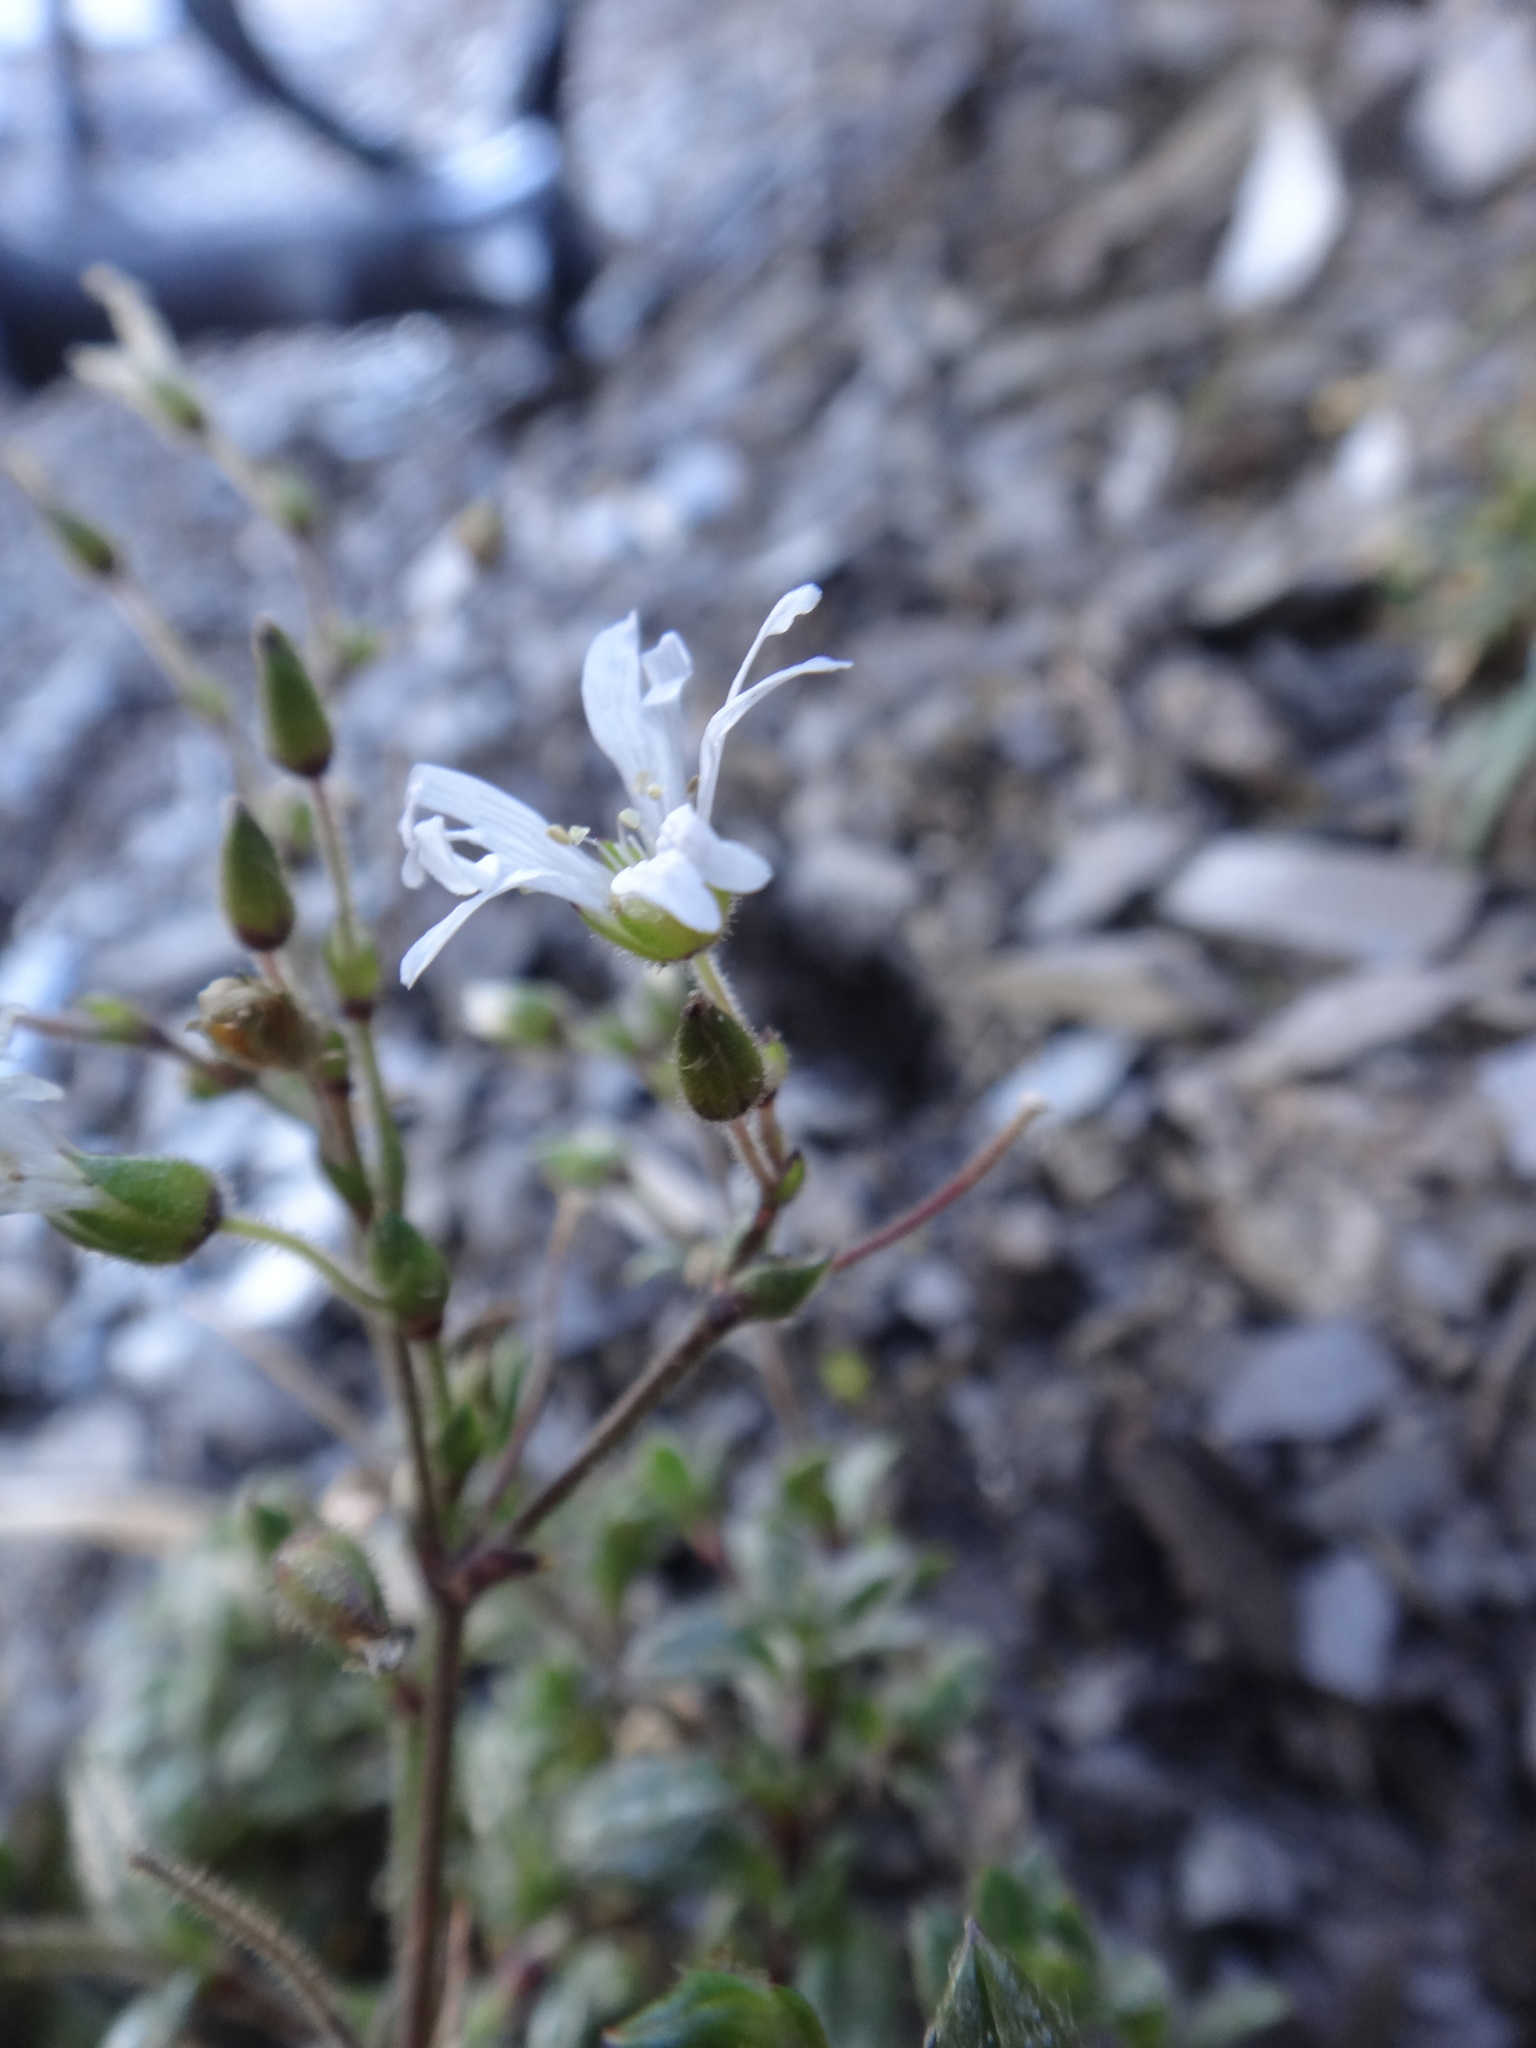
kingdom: Plantae
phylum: Tracheophyta
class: Magnoliopsida
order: Caryophyllales
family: Caryophyllaceae
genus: Cerastium
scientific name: Cerastium morrisonense
